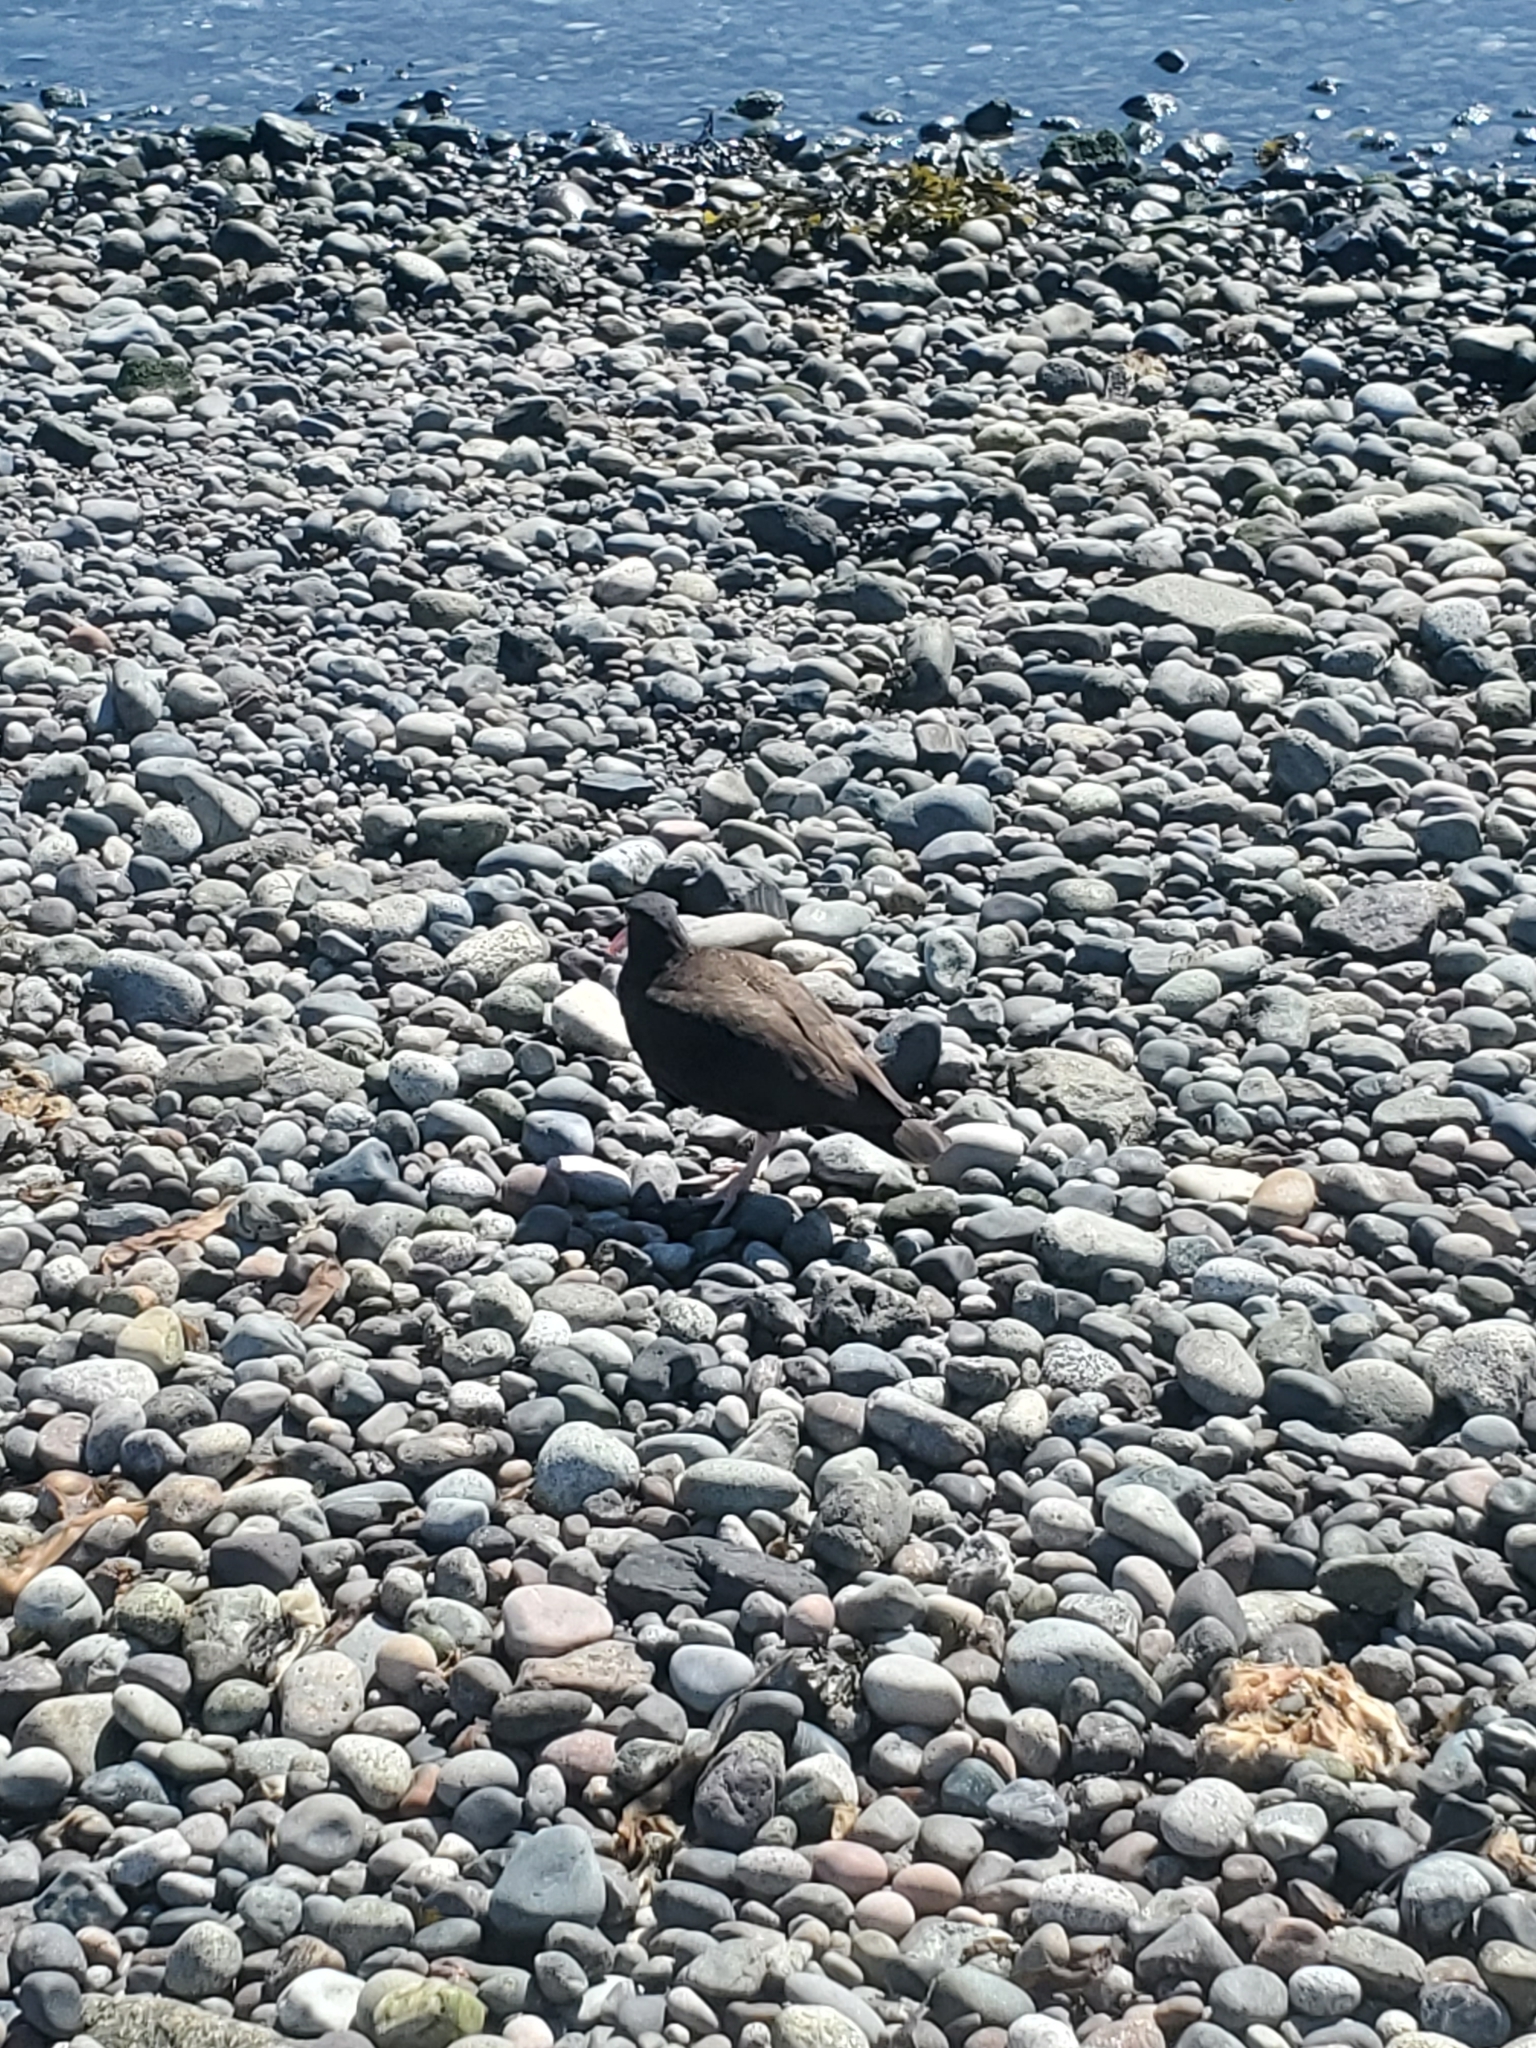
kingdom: Animalia
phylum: Chordata
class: Aves
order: Charadriiformes
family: Haematopodidae
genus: Haematopus
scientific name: Haematopus bachmani
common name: Black oystercatcher
